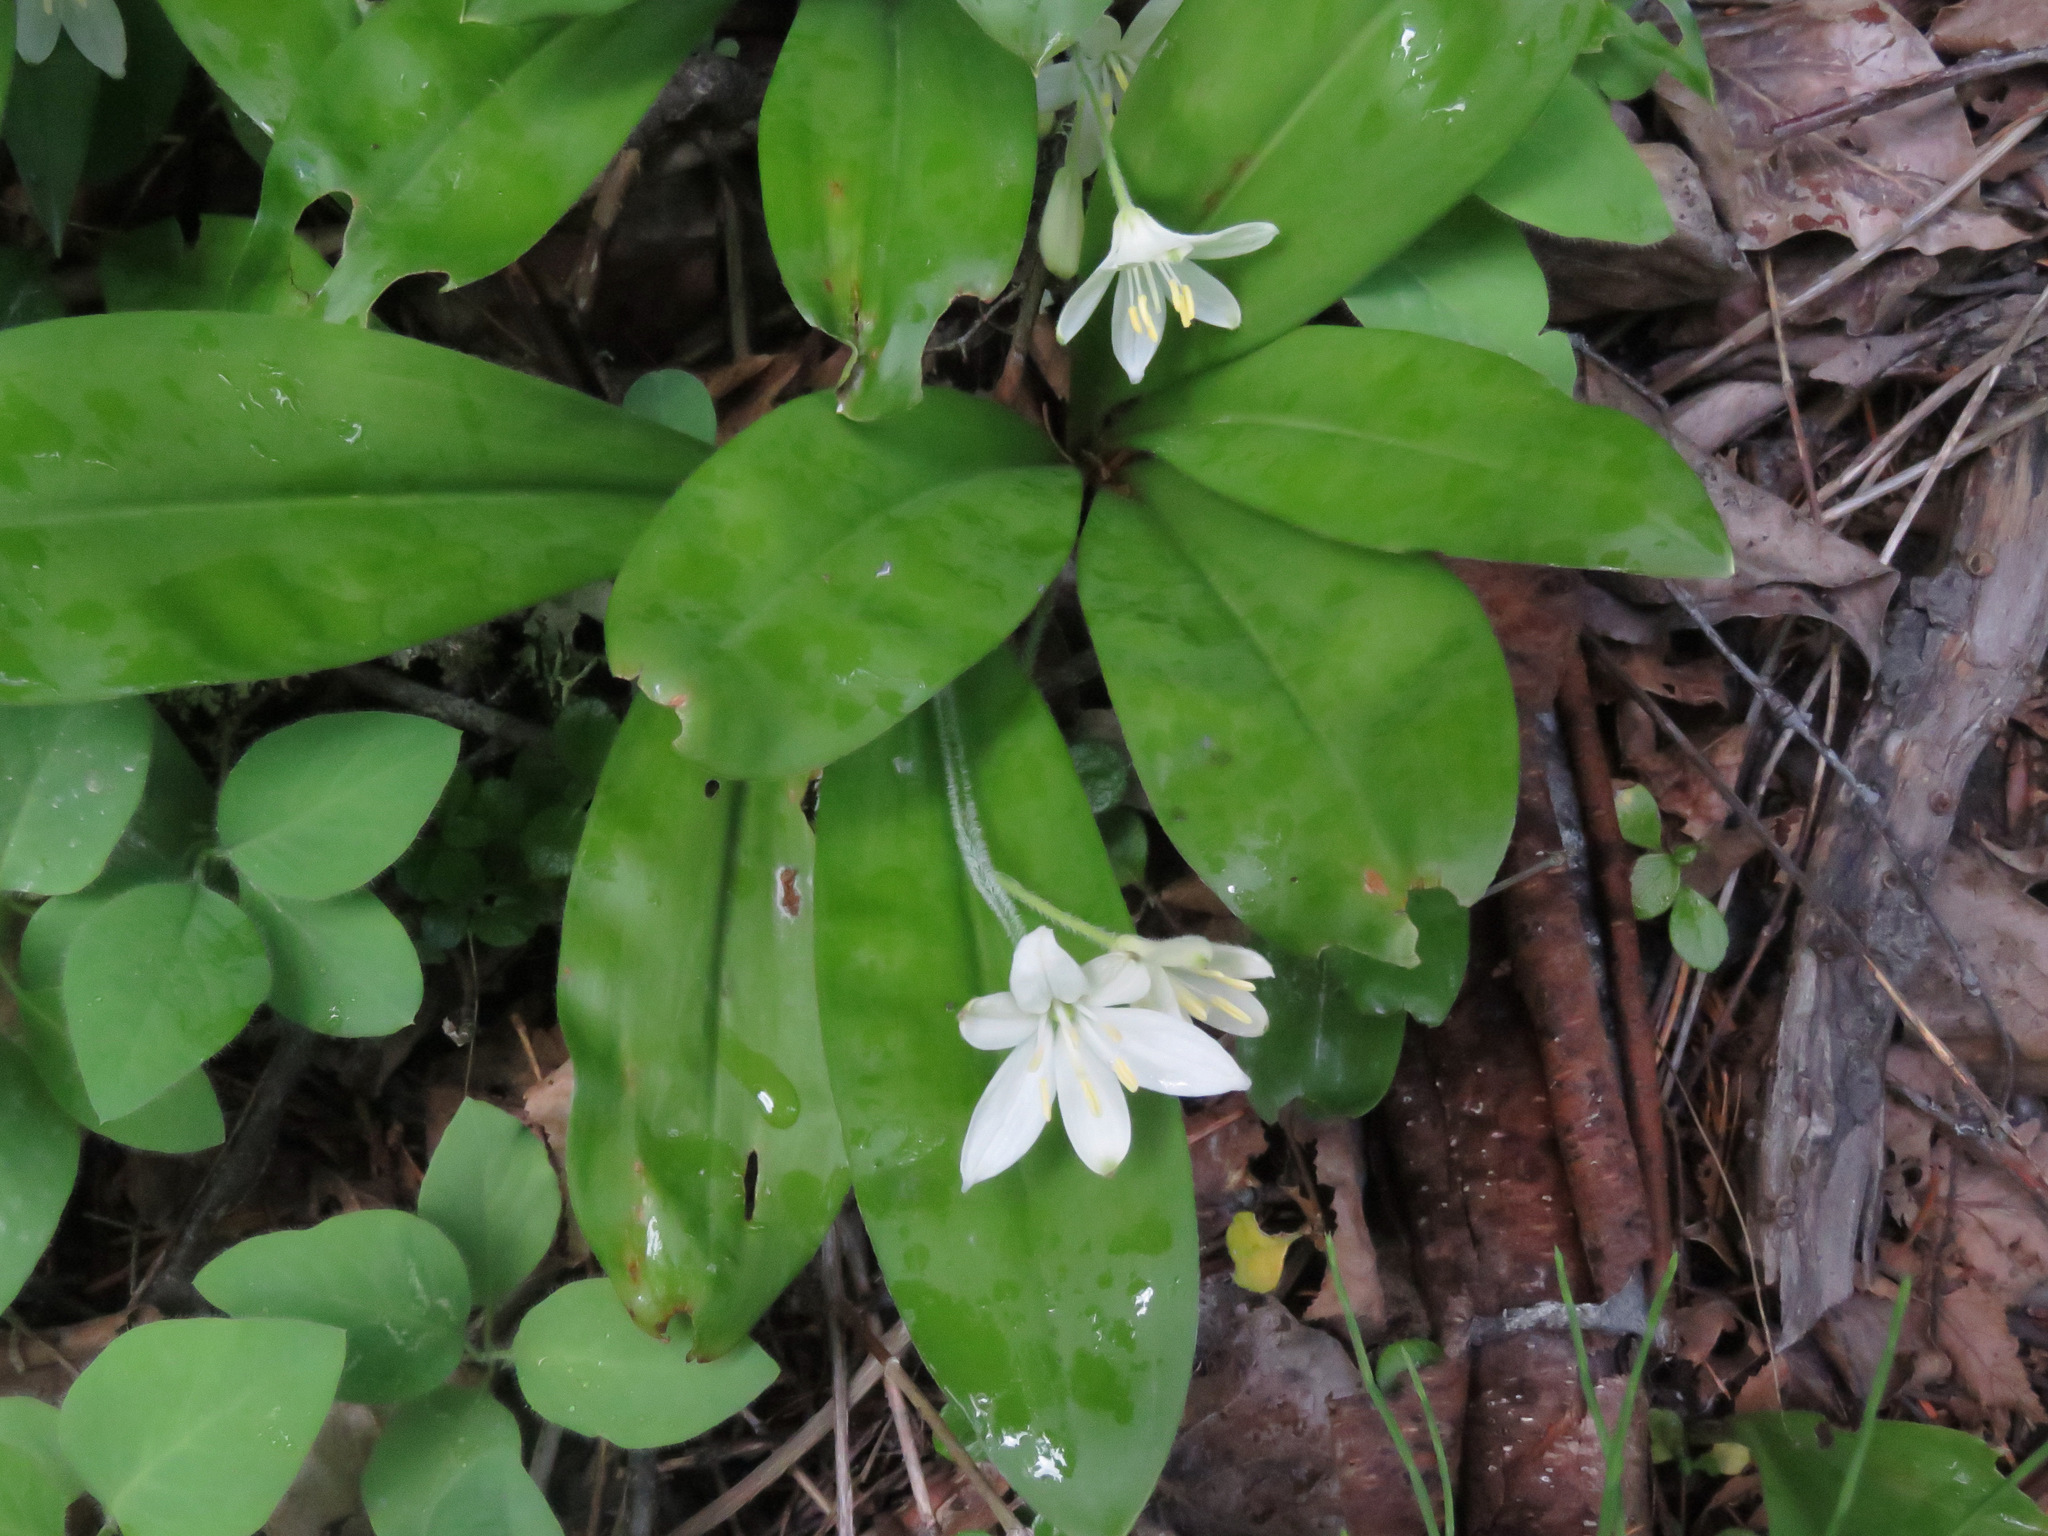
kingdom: Plantae
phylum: Tracheophyta
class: Liliopsida
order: Liliales
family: Liliaceae
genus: Clintonia
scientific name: Clintonia uniflora
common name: Queen's cup
